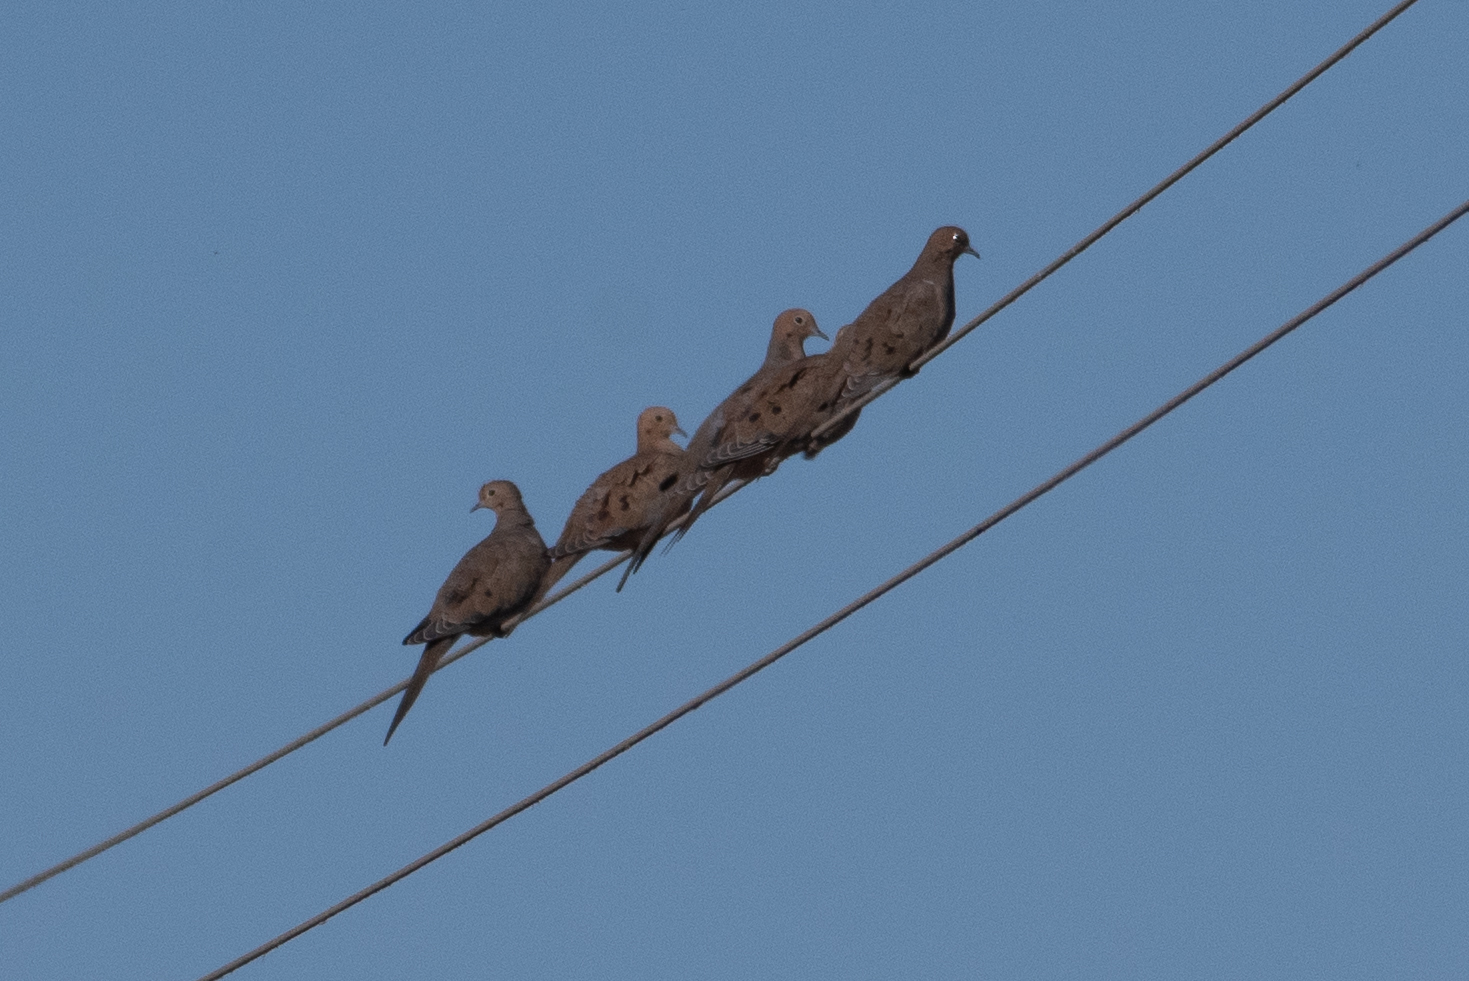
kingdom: Animalia
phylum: Chordata
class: Aves
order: Columbiformes
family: Columbidae
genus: Zenaida
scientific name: Zenaida macroura
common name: Mourning dove
